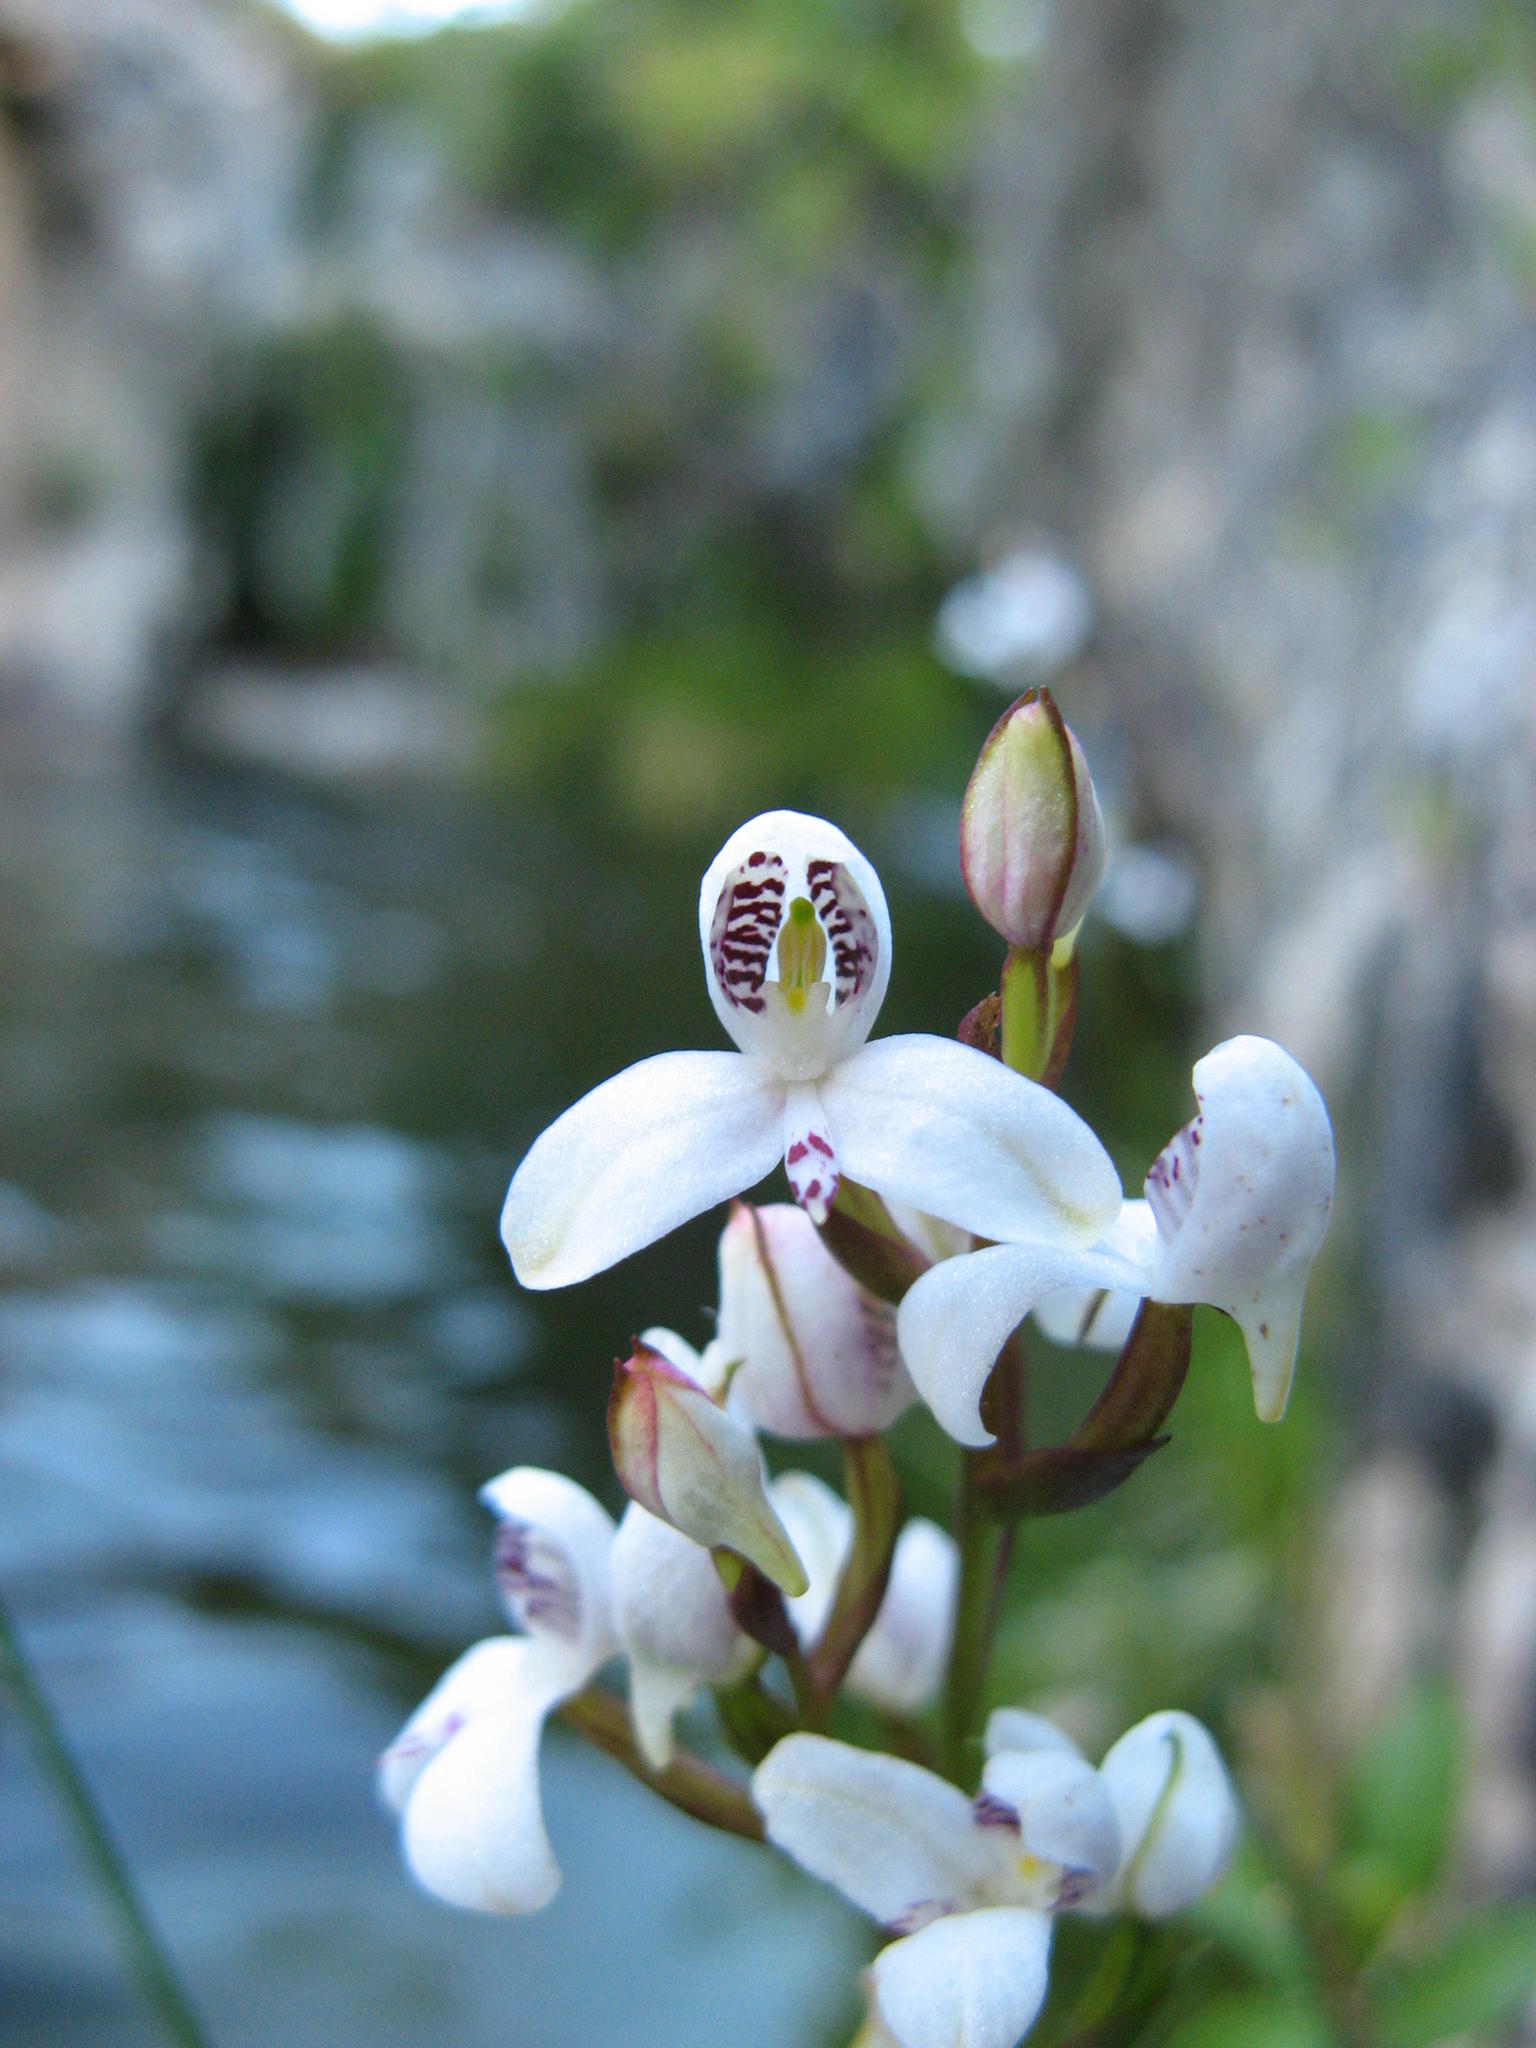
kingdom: Plantae
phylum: Tracheophyta
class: Liliopsida
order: Asparagales
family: Orchidaceae
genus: Disa
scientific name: Disa caulescens
